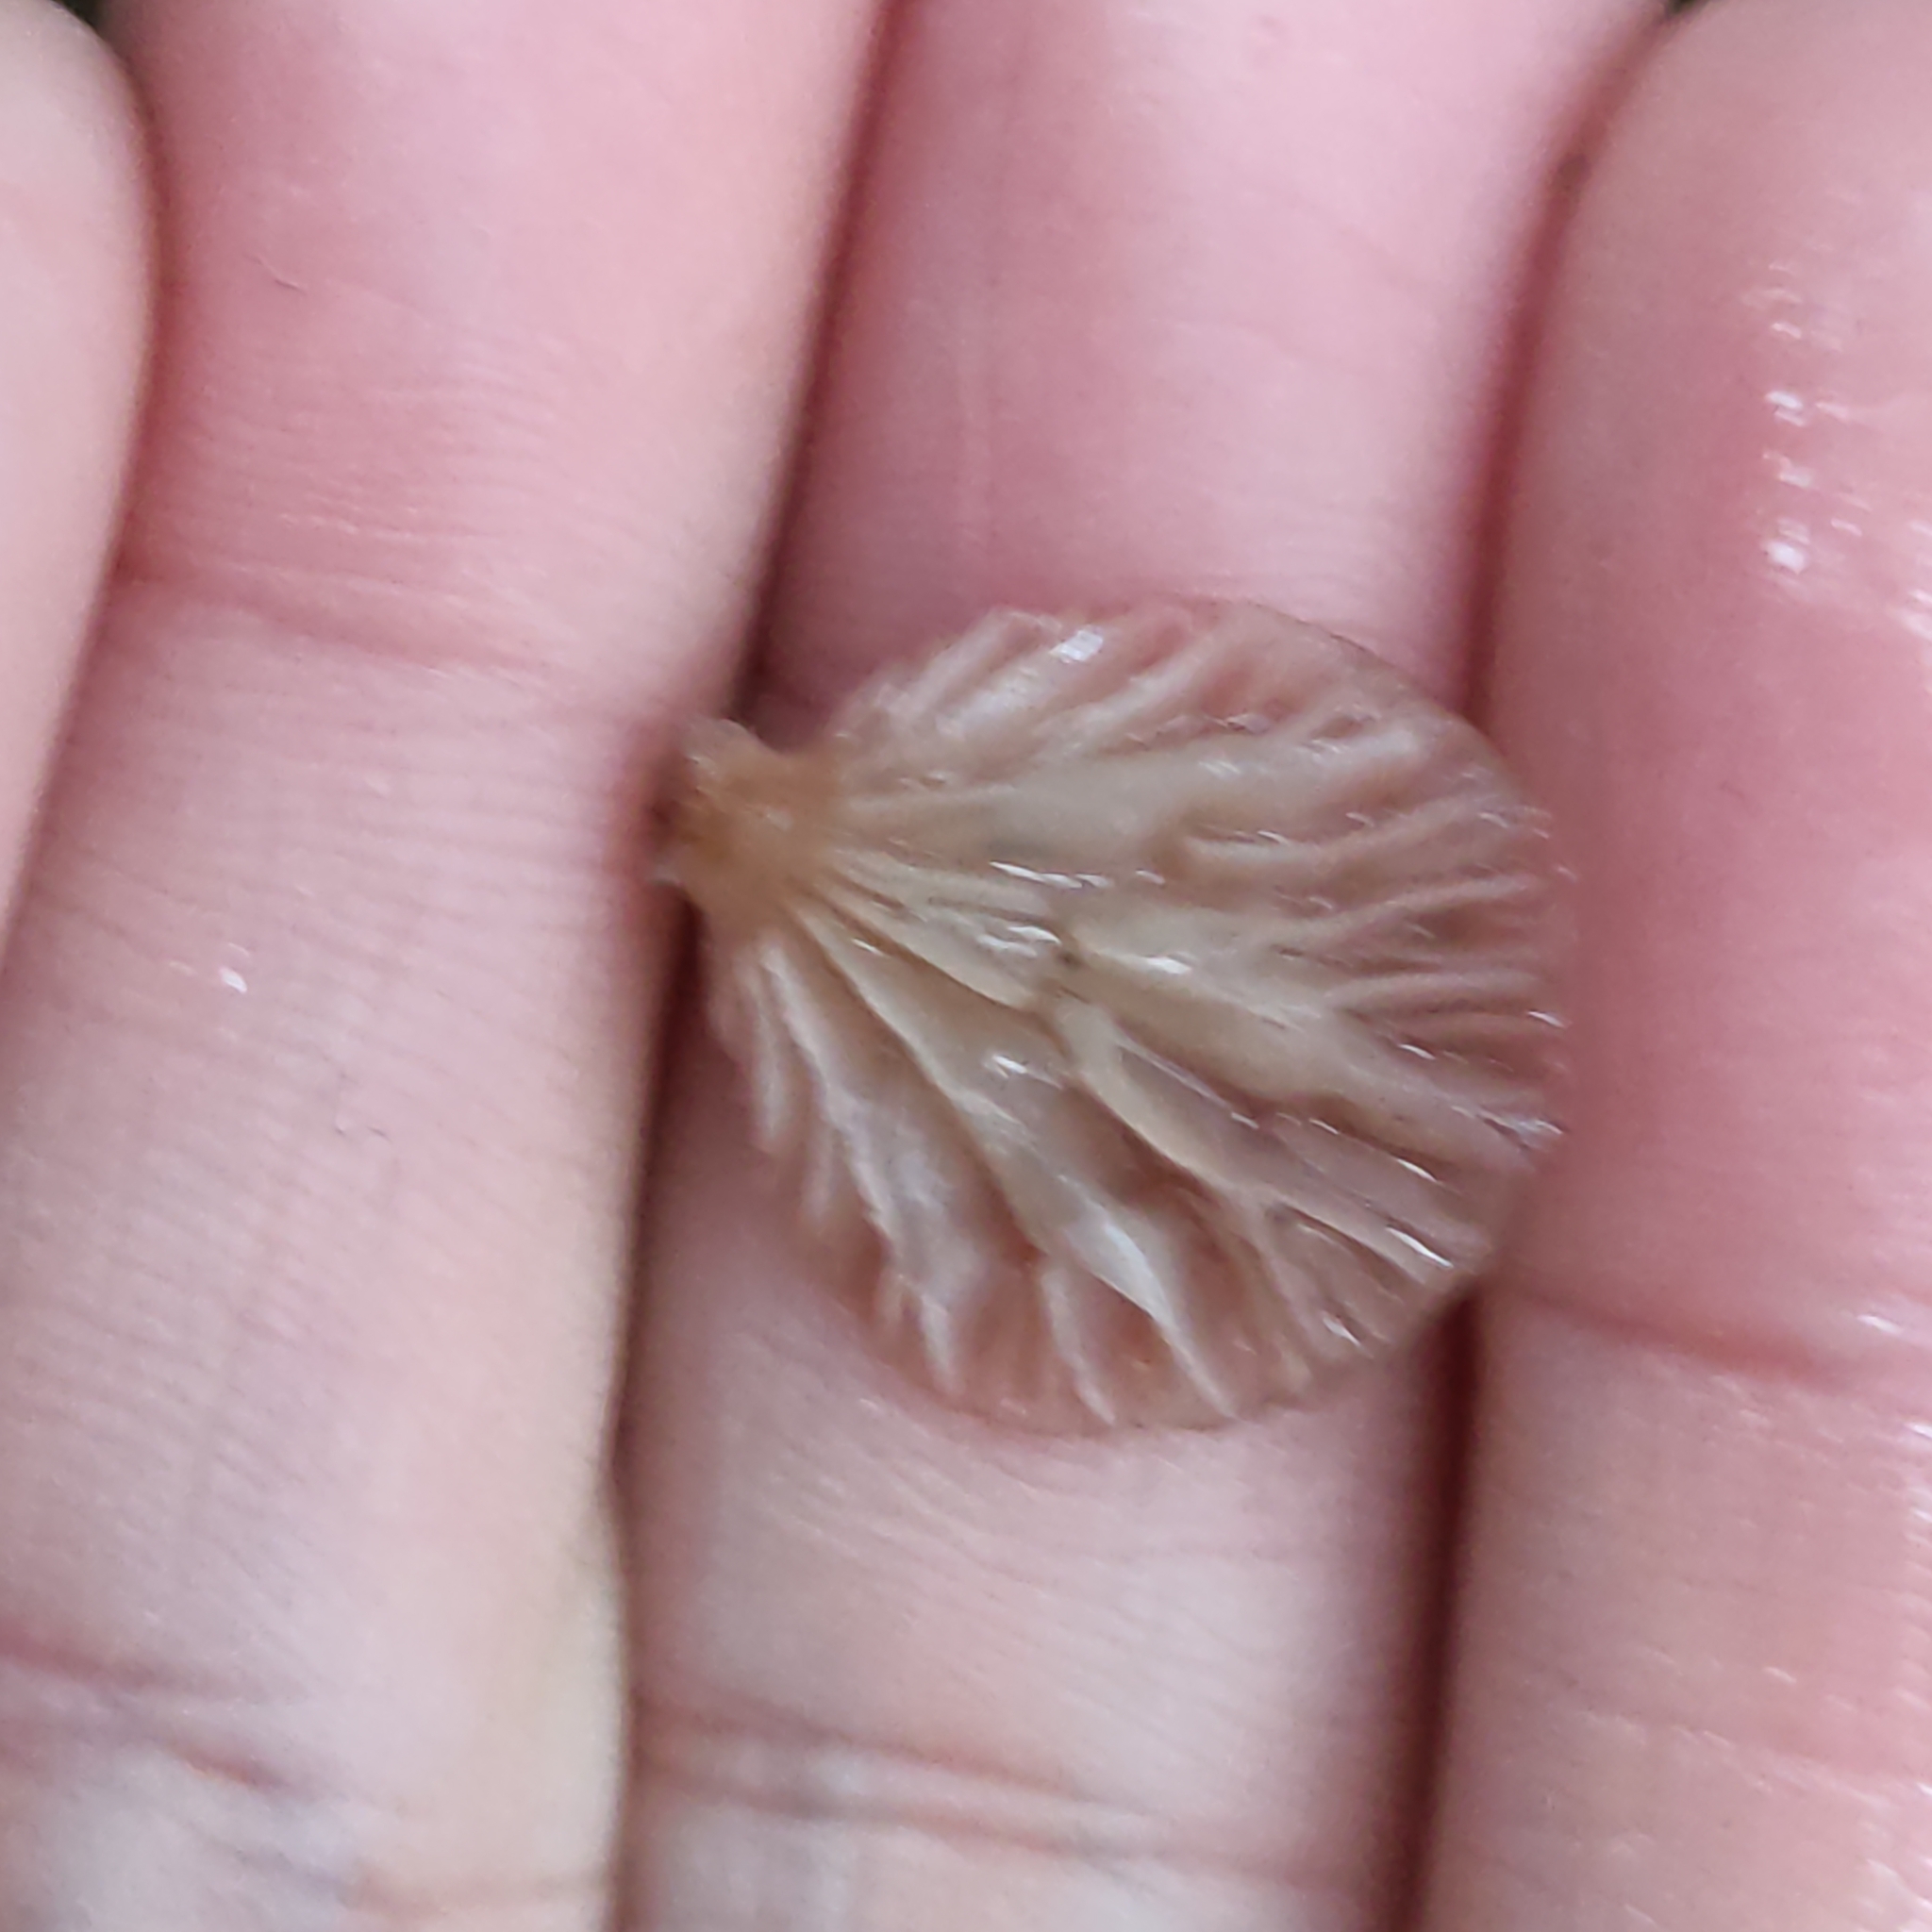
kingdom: Fungi
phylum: Basidiomycota
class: Agaricomycetes
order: Agaricales
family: Mycenaceae
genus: Panellus
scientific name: Panellus longinquus
